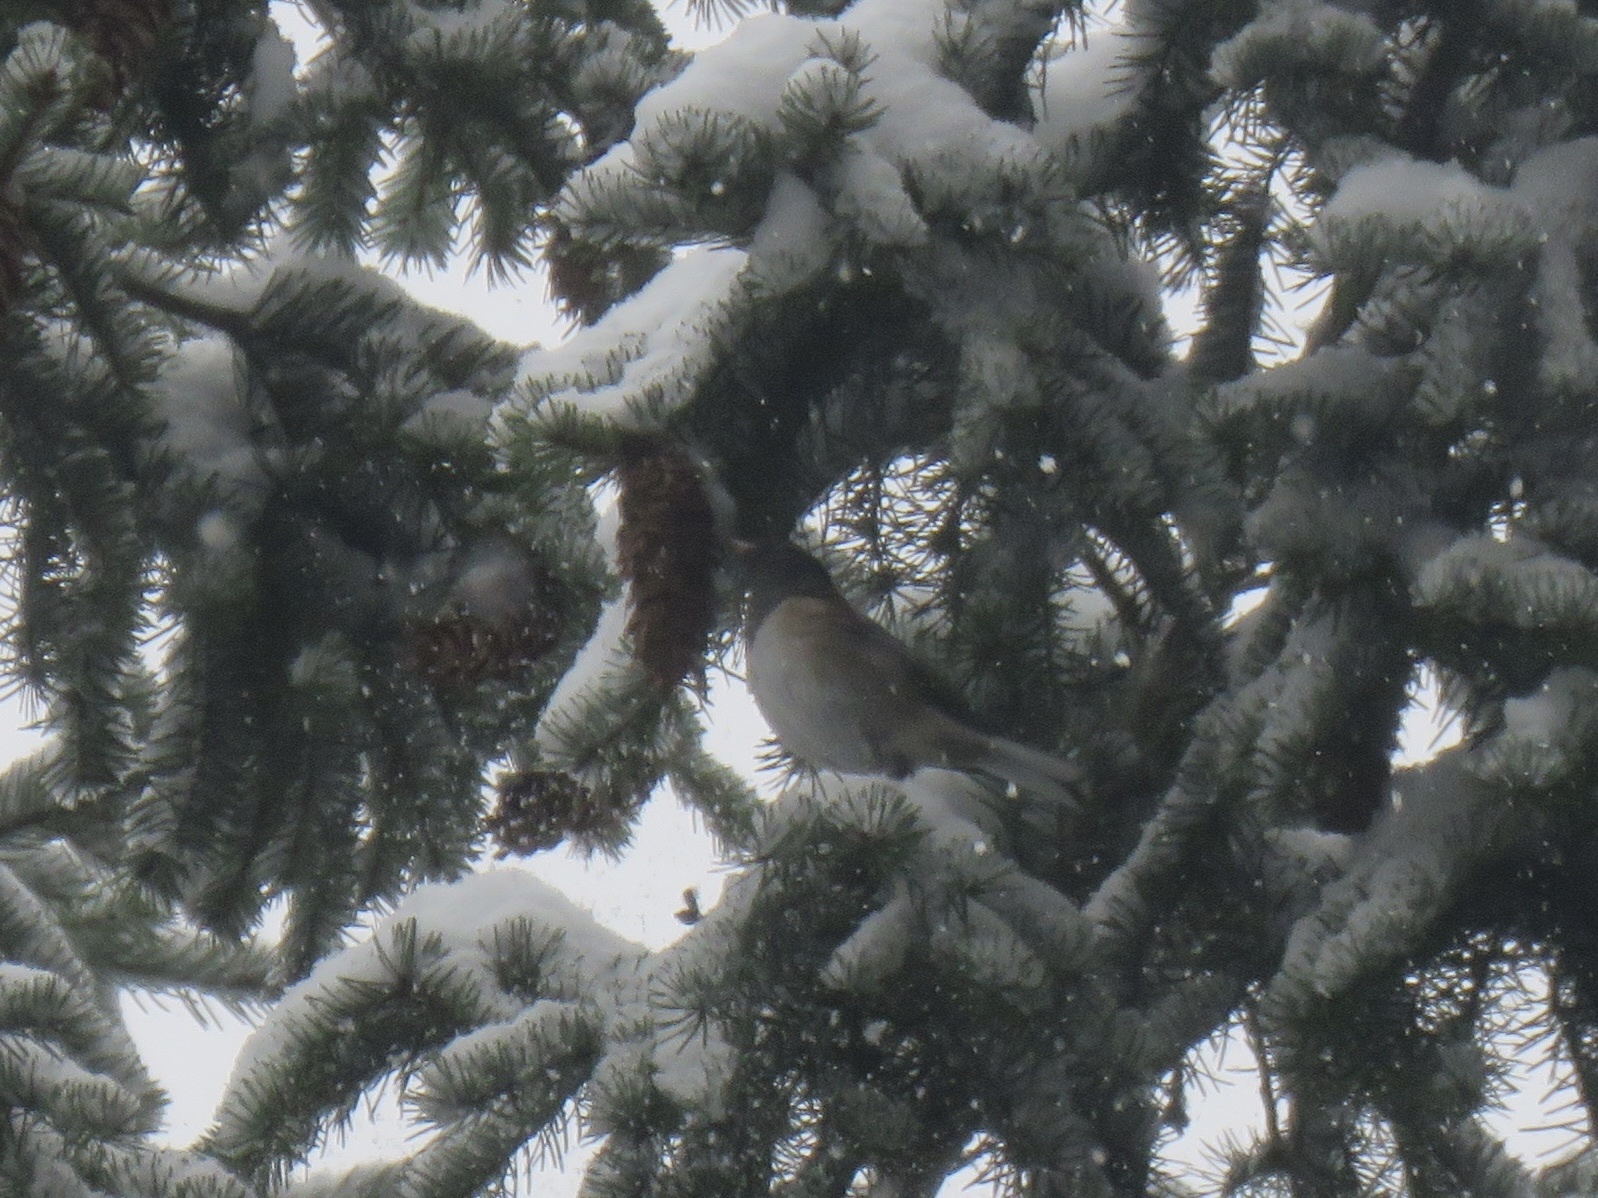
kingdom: Animalia
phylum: Chordata
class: Aves
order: Passeriformes
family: Passerellidae
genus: Junco
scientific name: Junco hyemalis
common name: Dark-eyed junco
